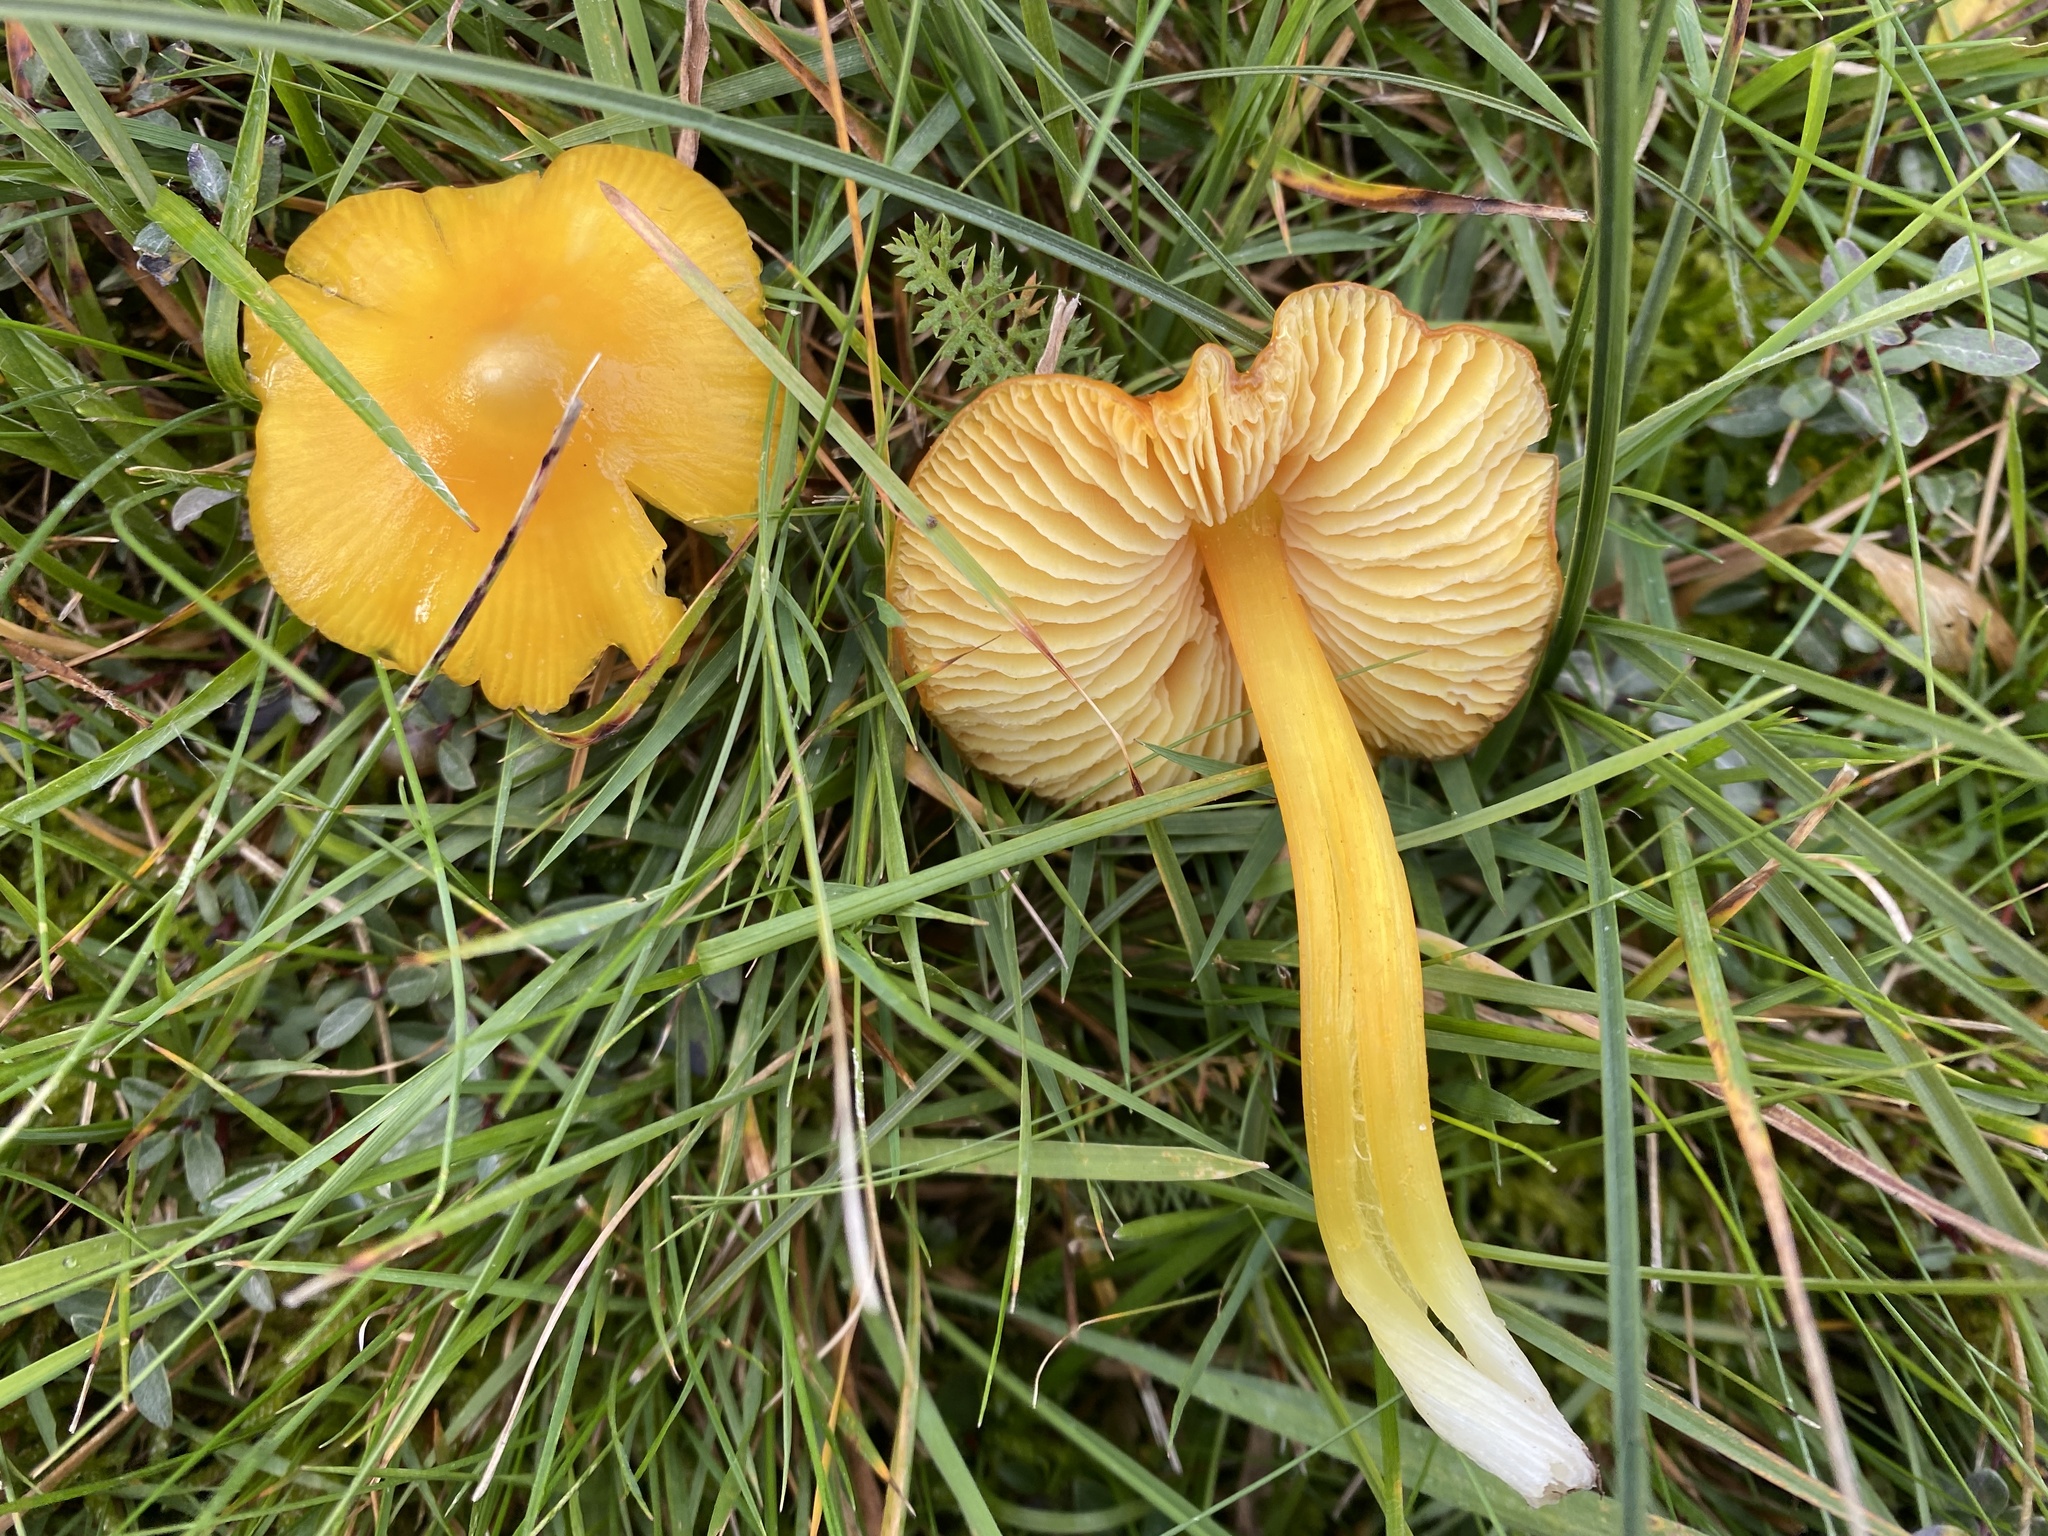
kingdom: Fungi
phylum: Basidiomycota
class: Agaricomycetes
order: Agaricales
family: Hygrophoraceae
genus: Hygrocybe
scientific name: Hygrocybe acutoconica
